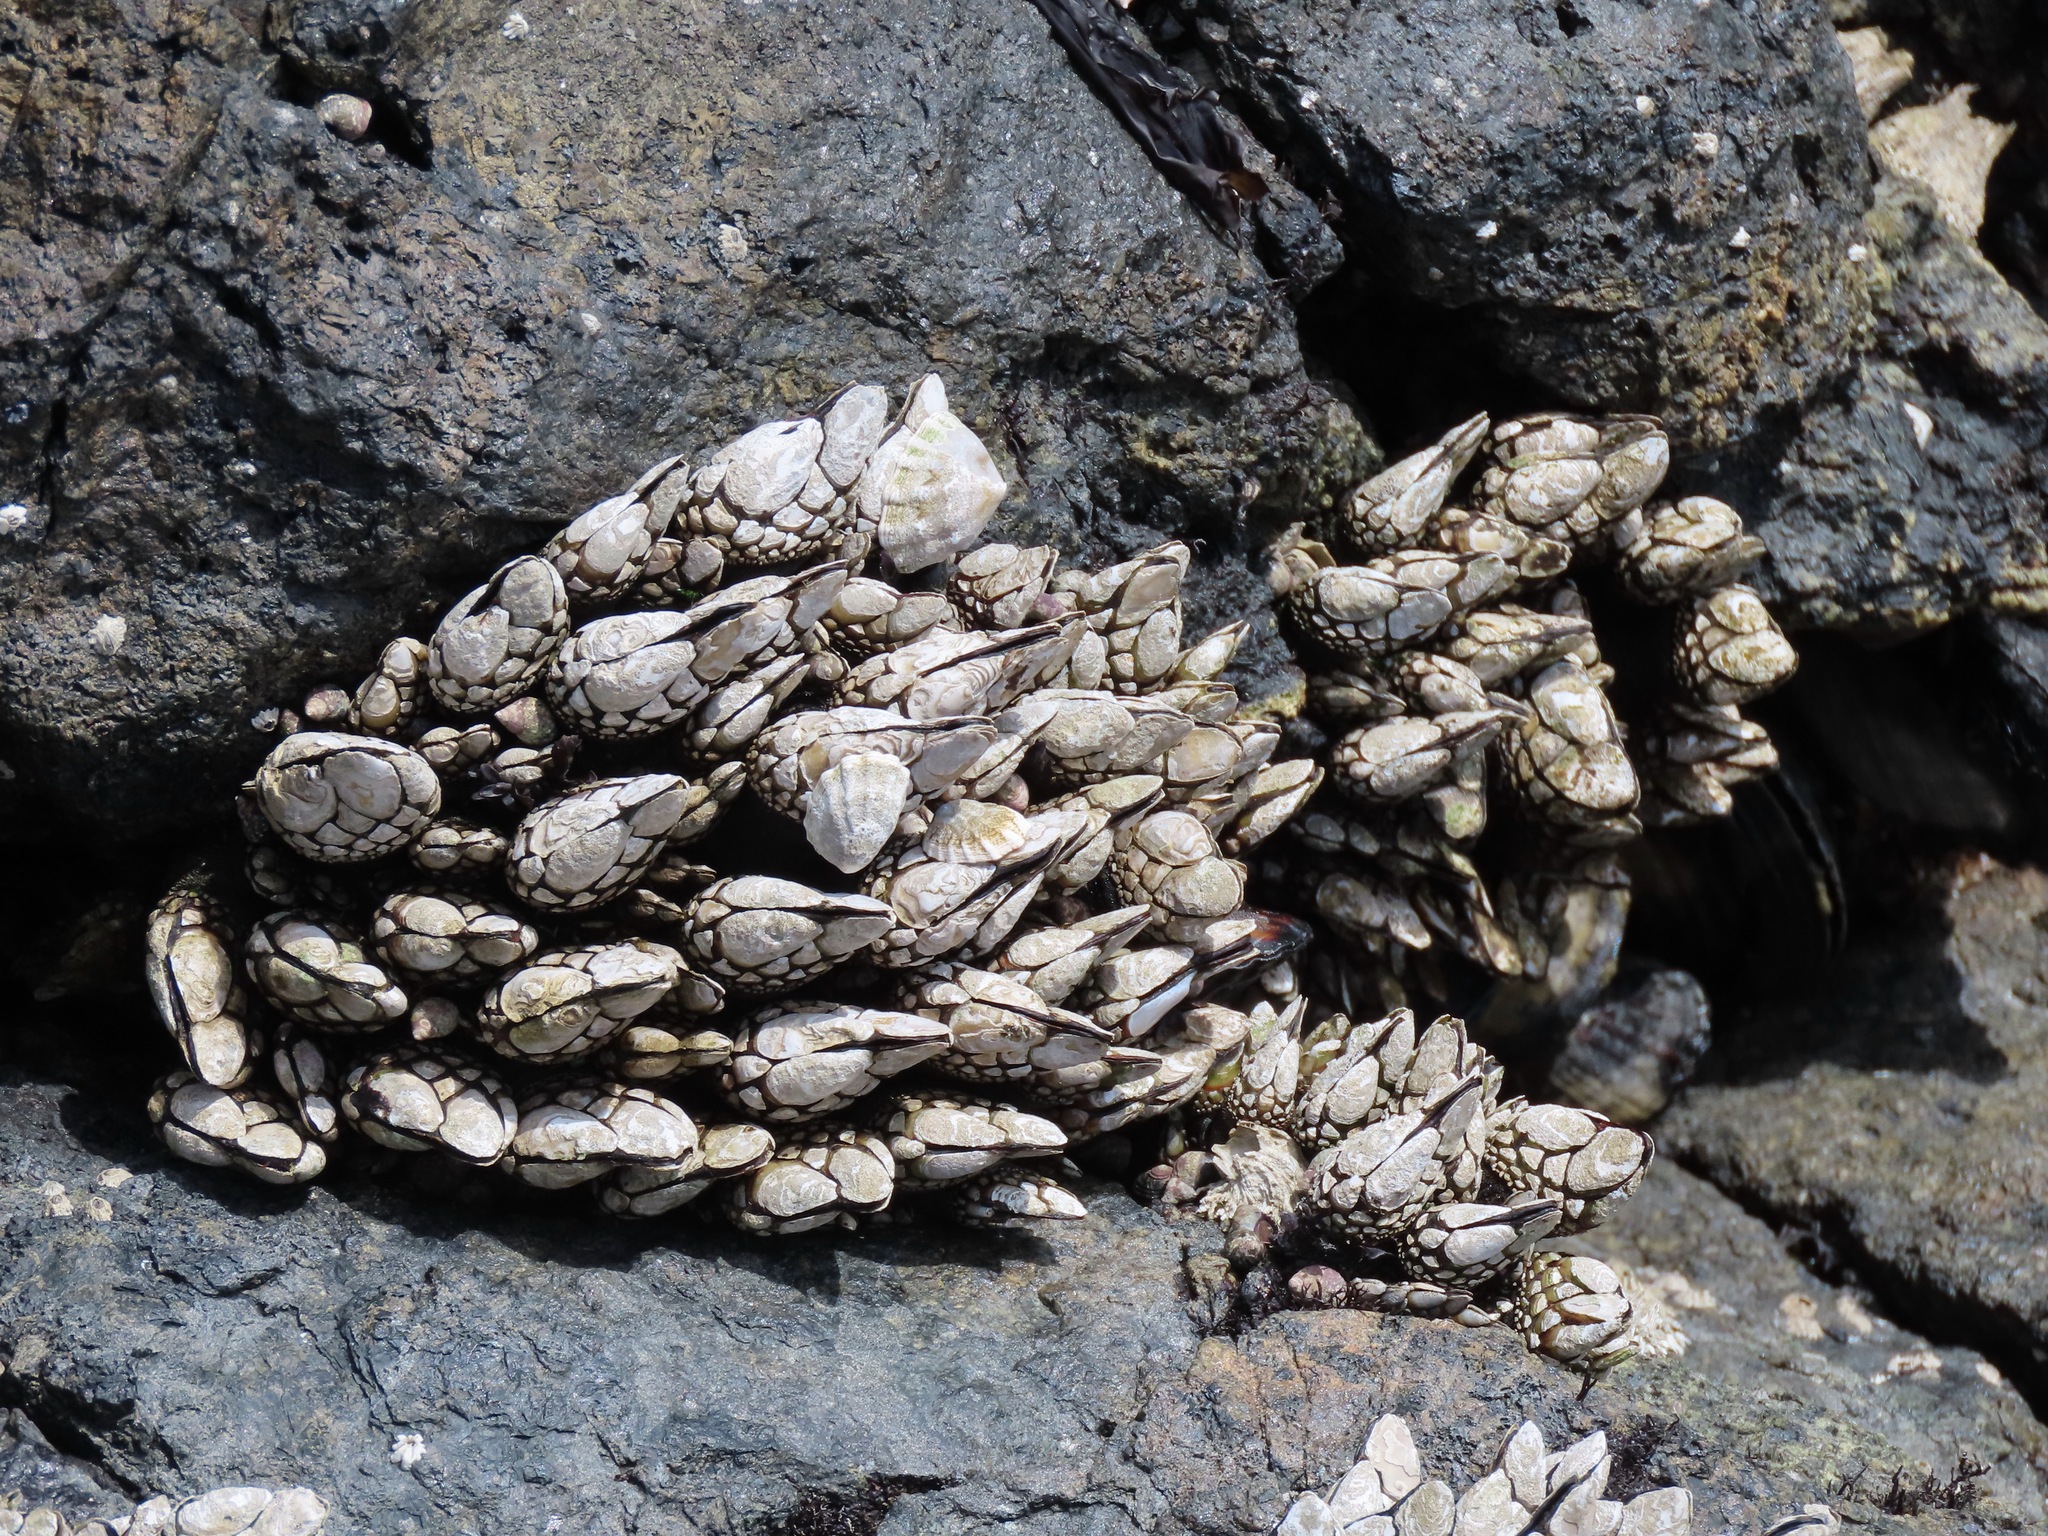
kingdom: Animalia
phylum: Arthropoda
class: Maxillopoda
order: Pedunculata
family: Pollicipedidae
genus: Pollicipes
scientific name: Pollicipes polymerus
